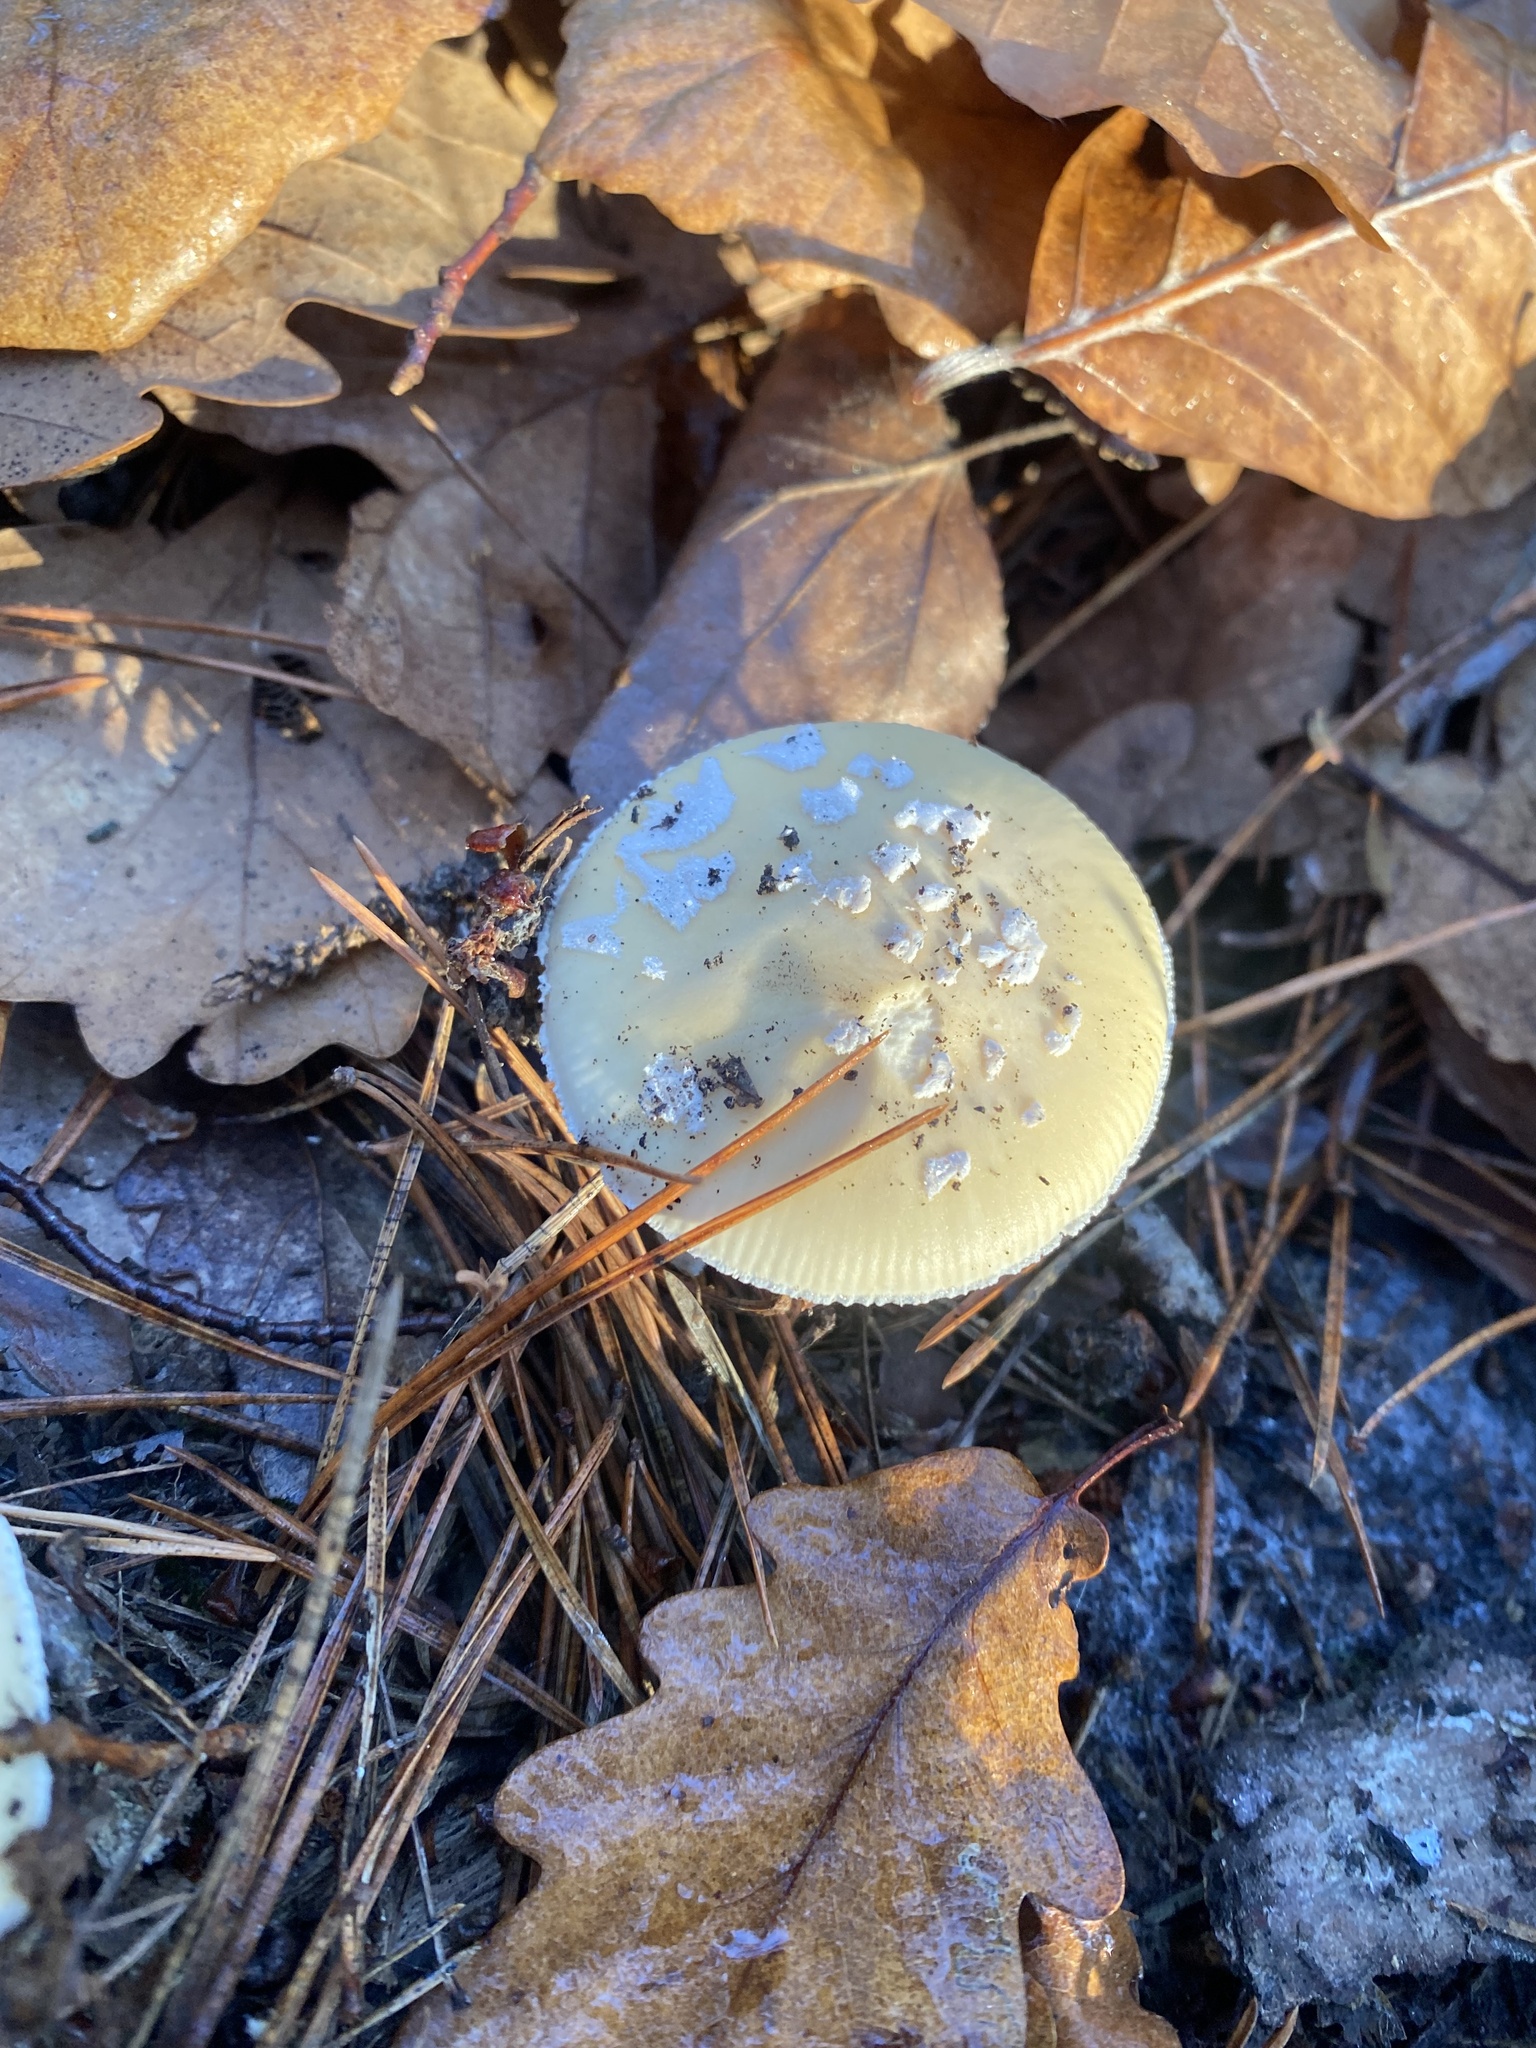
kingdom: Fungi
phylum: Basidiomycota
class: Agaricomycetes
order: Agaricales
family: Amanitaceae
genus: Amanita
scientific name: Amanita gemmata
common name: Jewelled amanita
